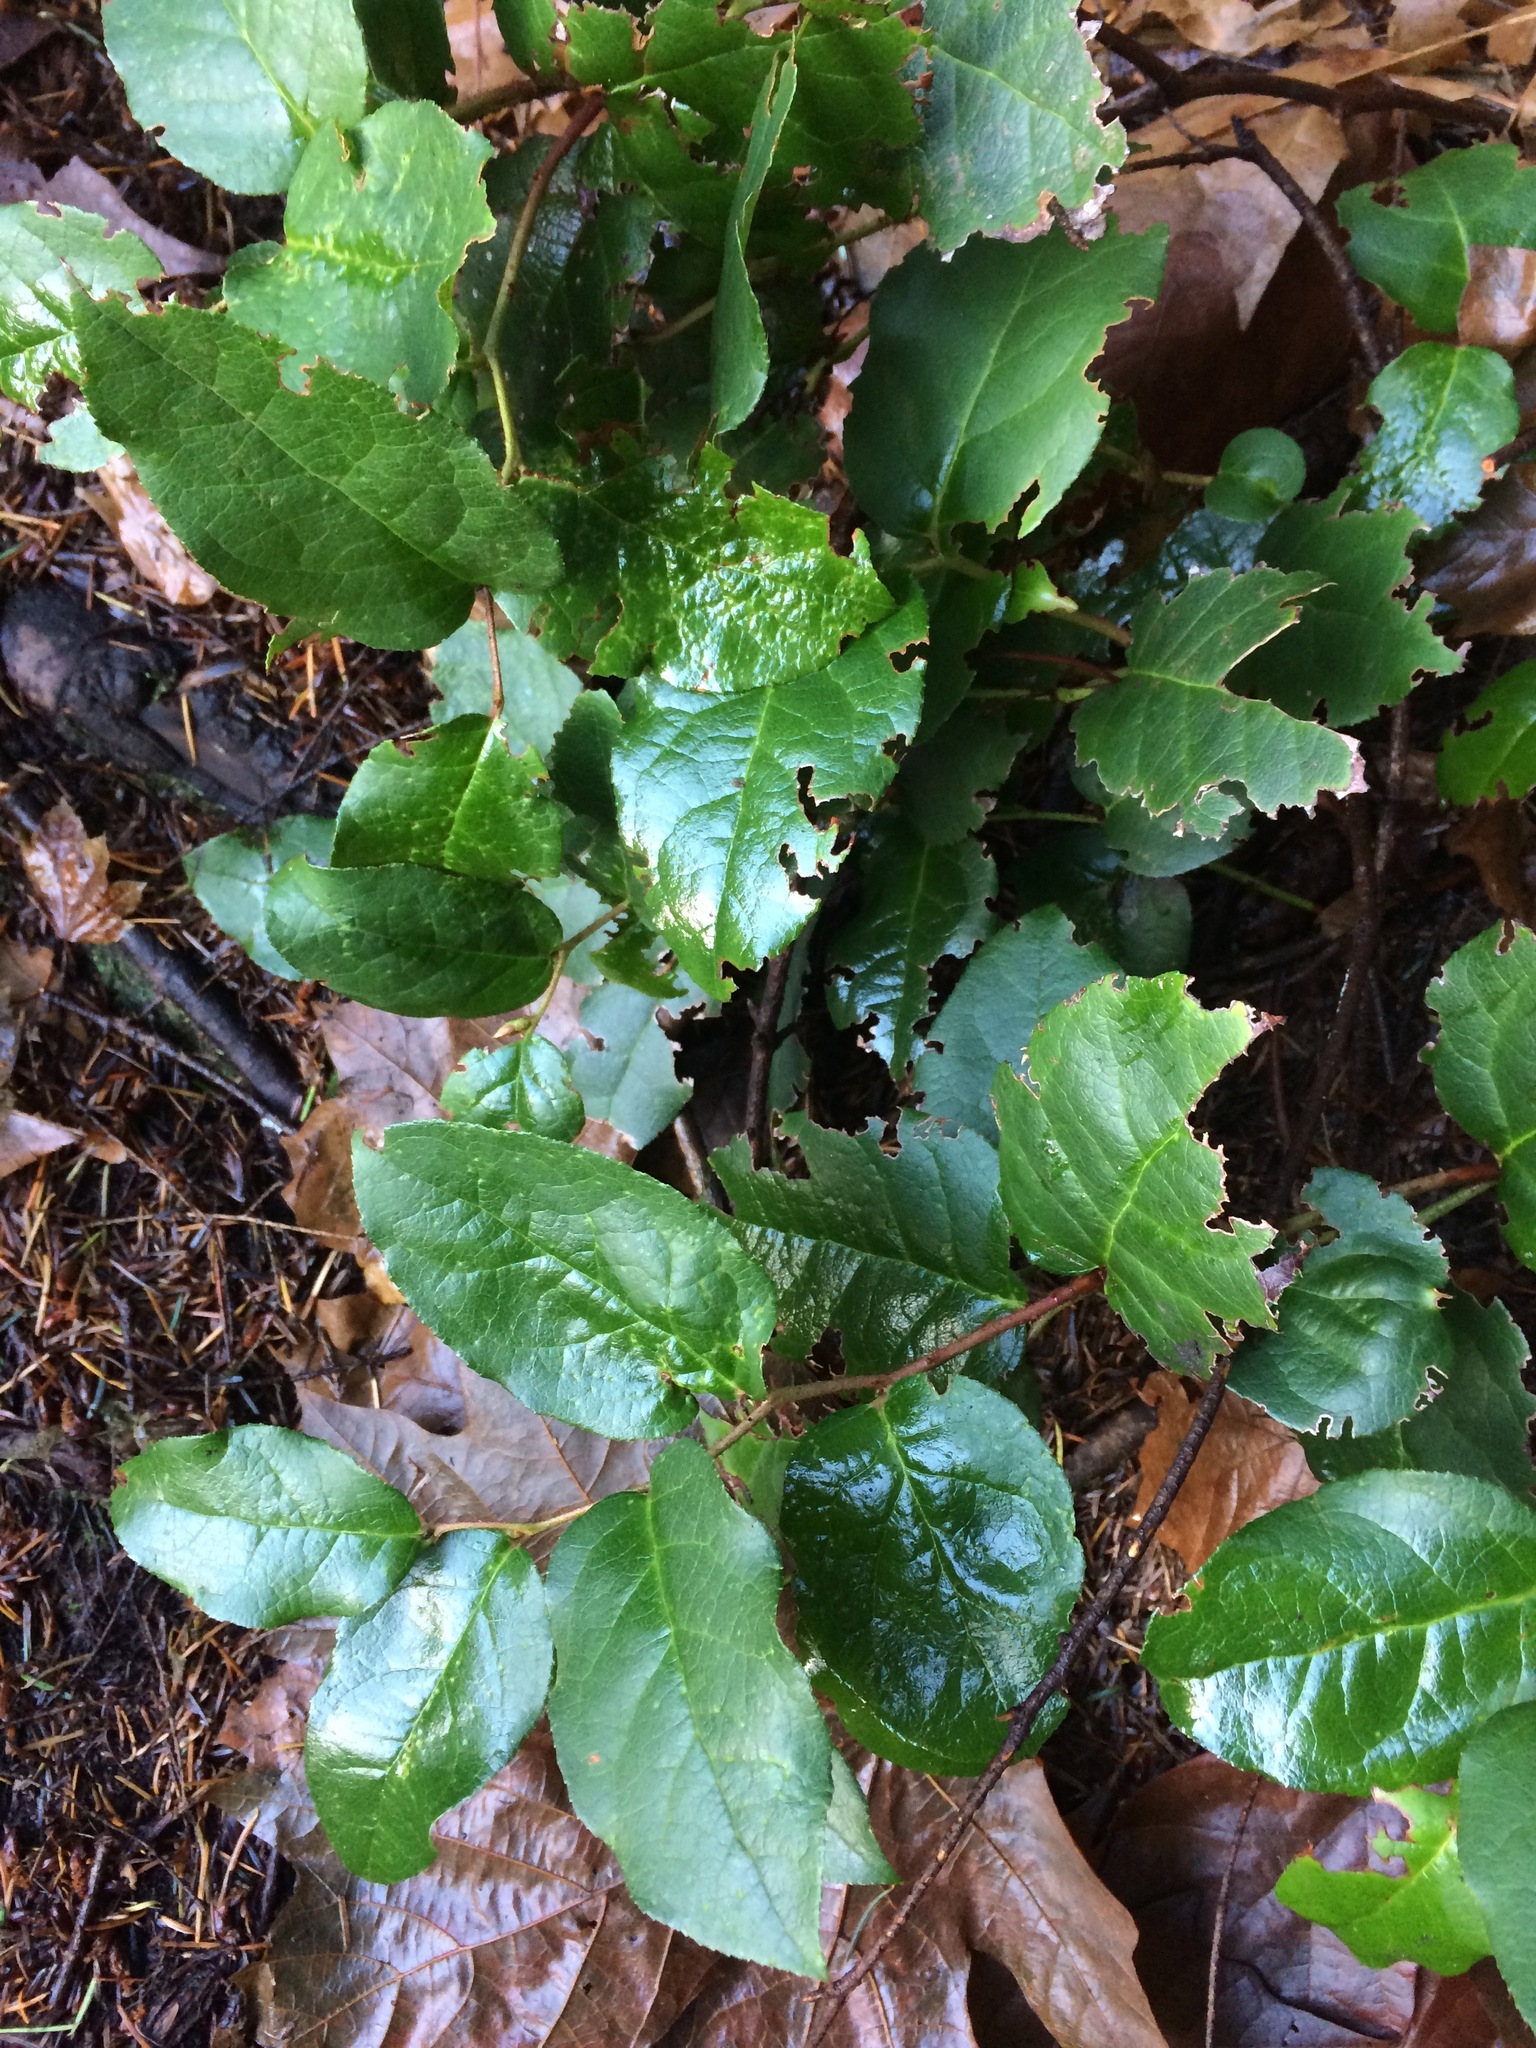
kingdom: Plantae
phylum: Tracheophyta
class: Magnoliopsida
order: Ericales
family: Ericaceae
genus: Gaultheria
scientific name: Gaultheria shallon
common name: Shallon
